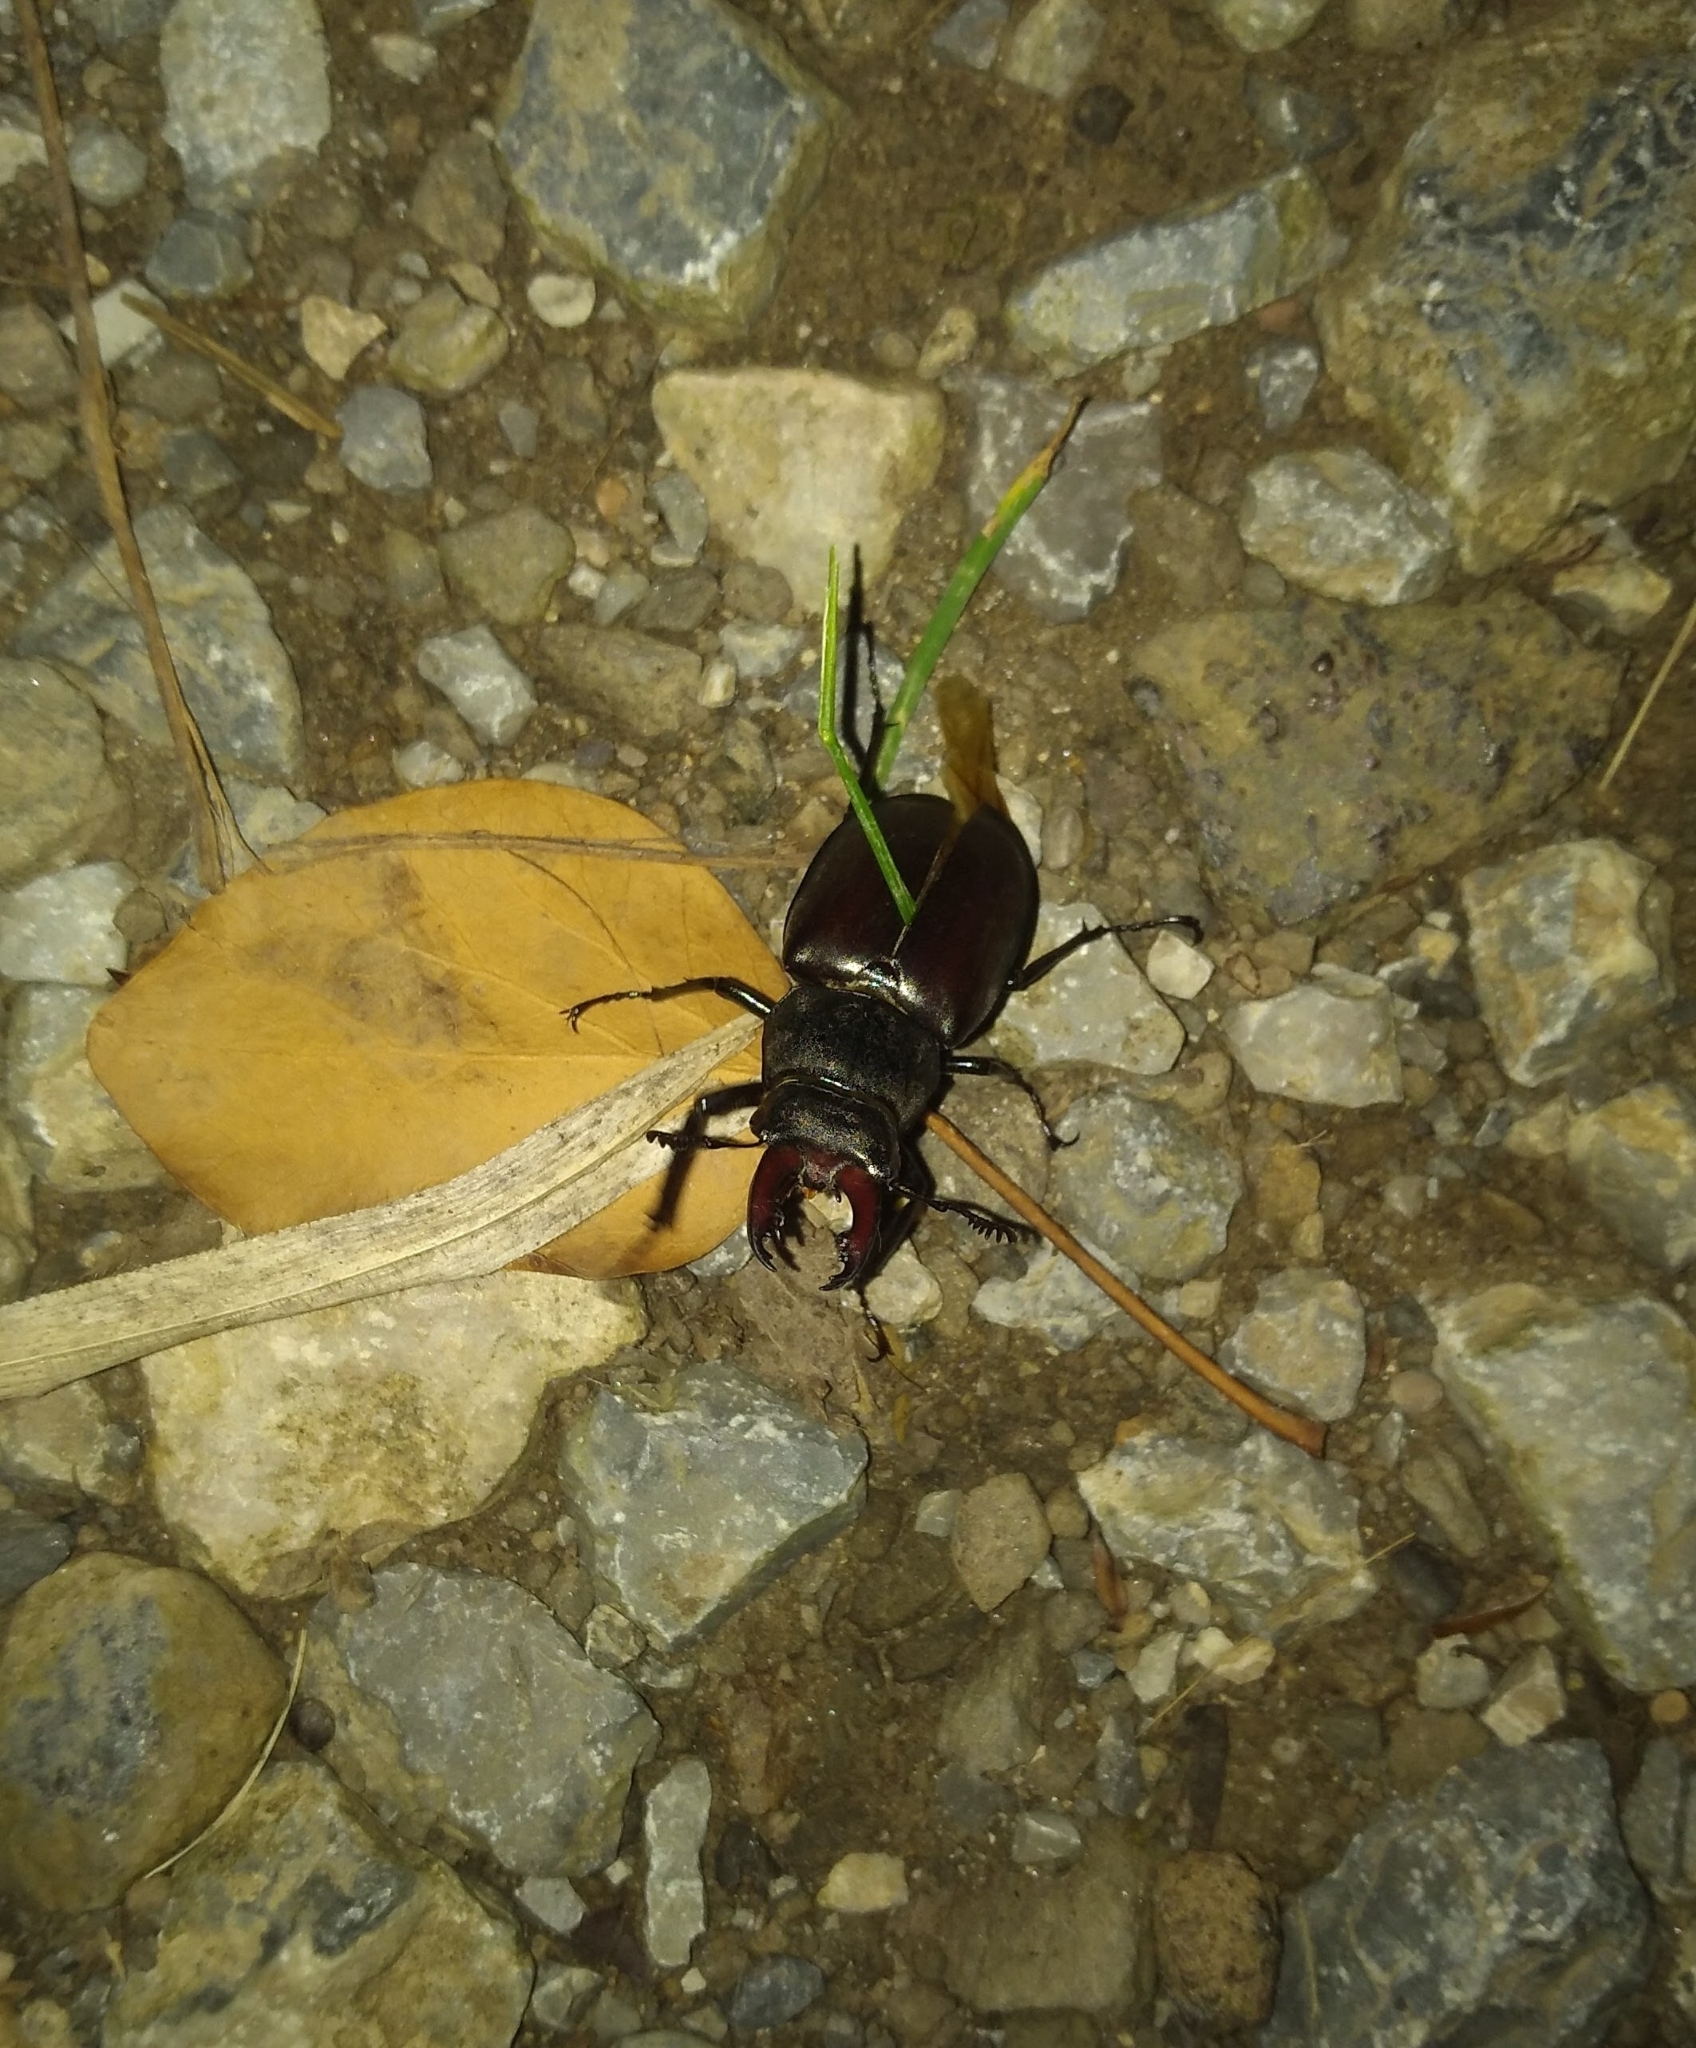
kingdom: Animalia
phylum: Arthropoda
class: Insecta
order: Coleoptera
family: Lucanidae
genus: Lucanus
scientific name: Lucanus cervus
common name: Stag beetle
